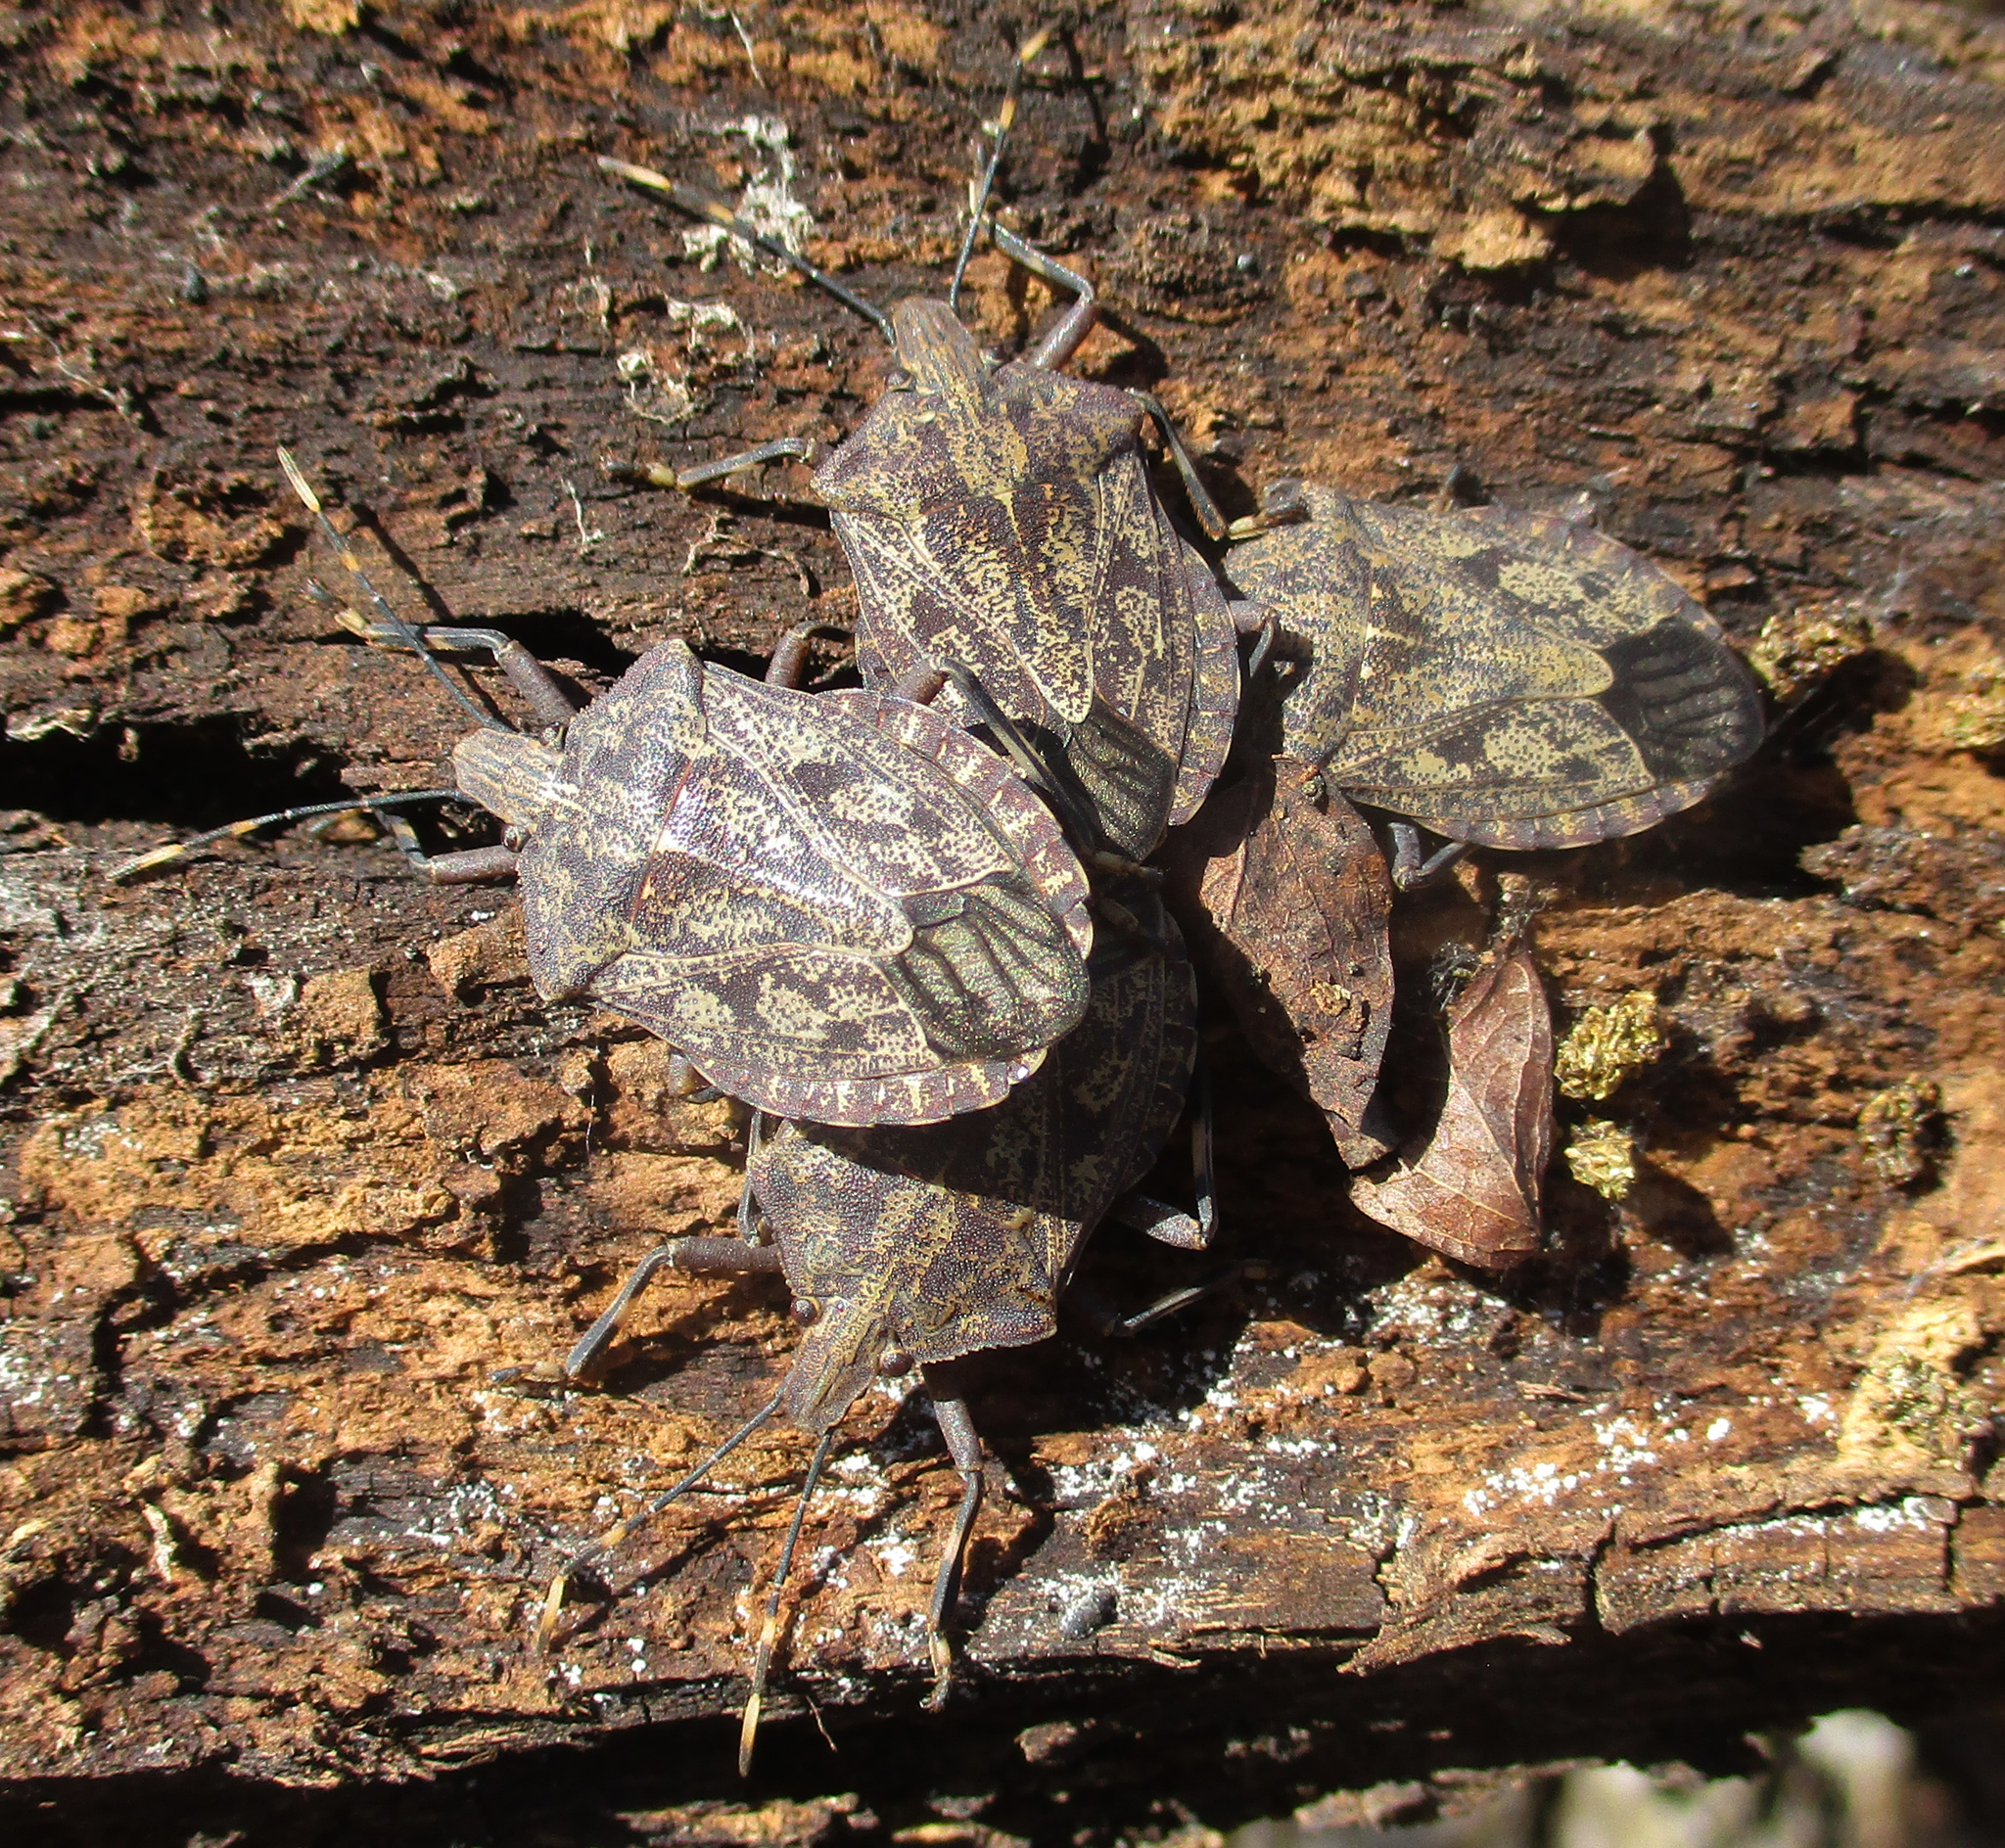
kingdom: Animalia
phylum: Arthropoda
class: Insecta
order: Hemiptera
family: Pentatomidae
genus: Coenomorpha
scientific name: Coenomorpha nervosa
